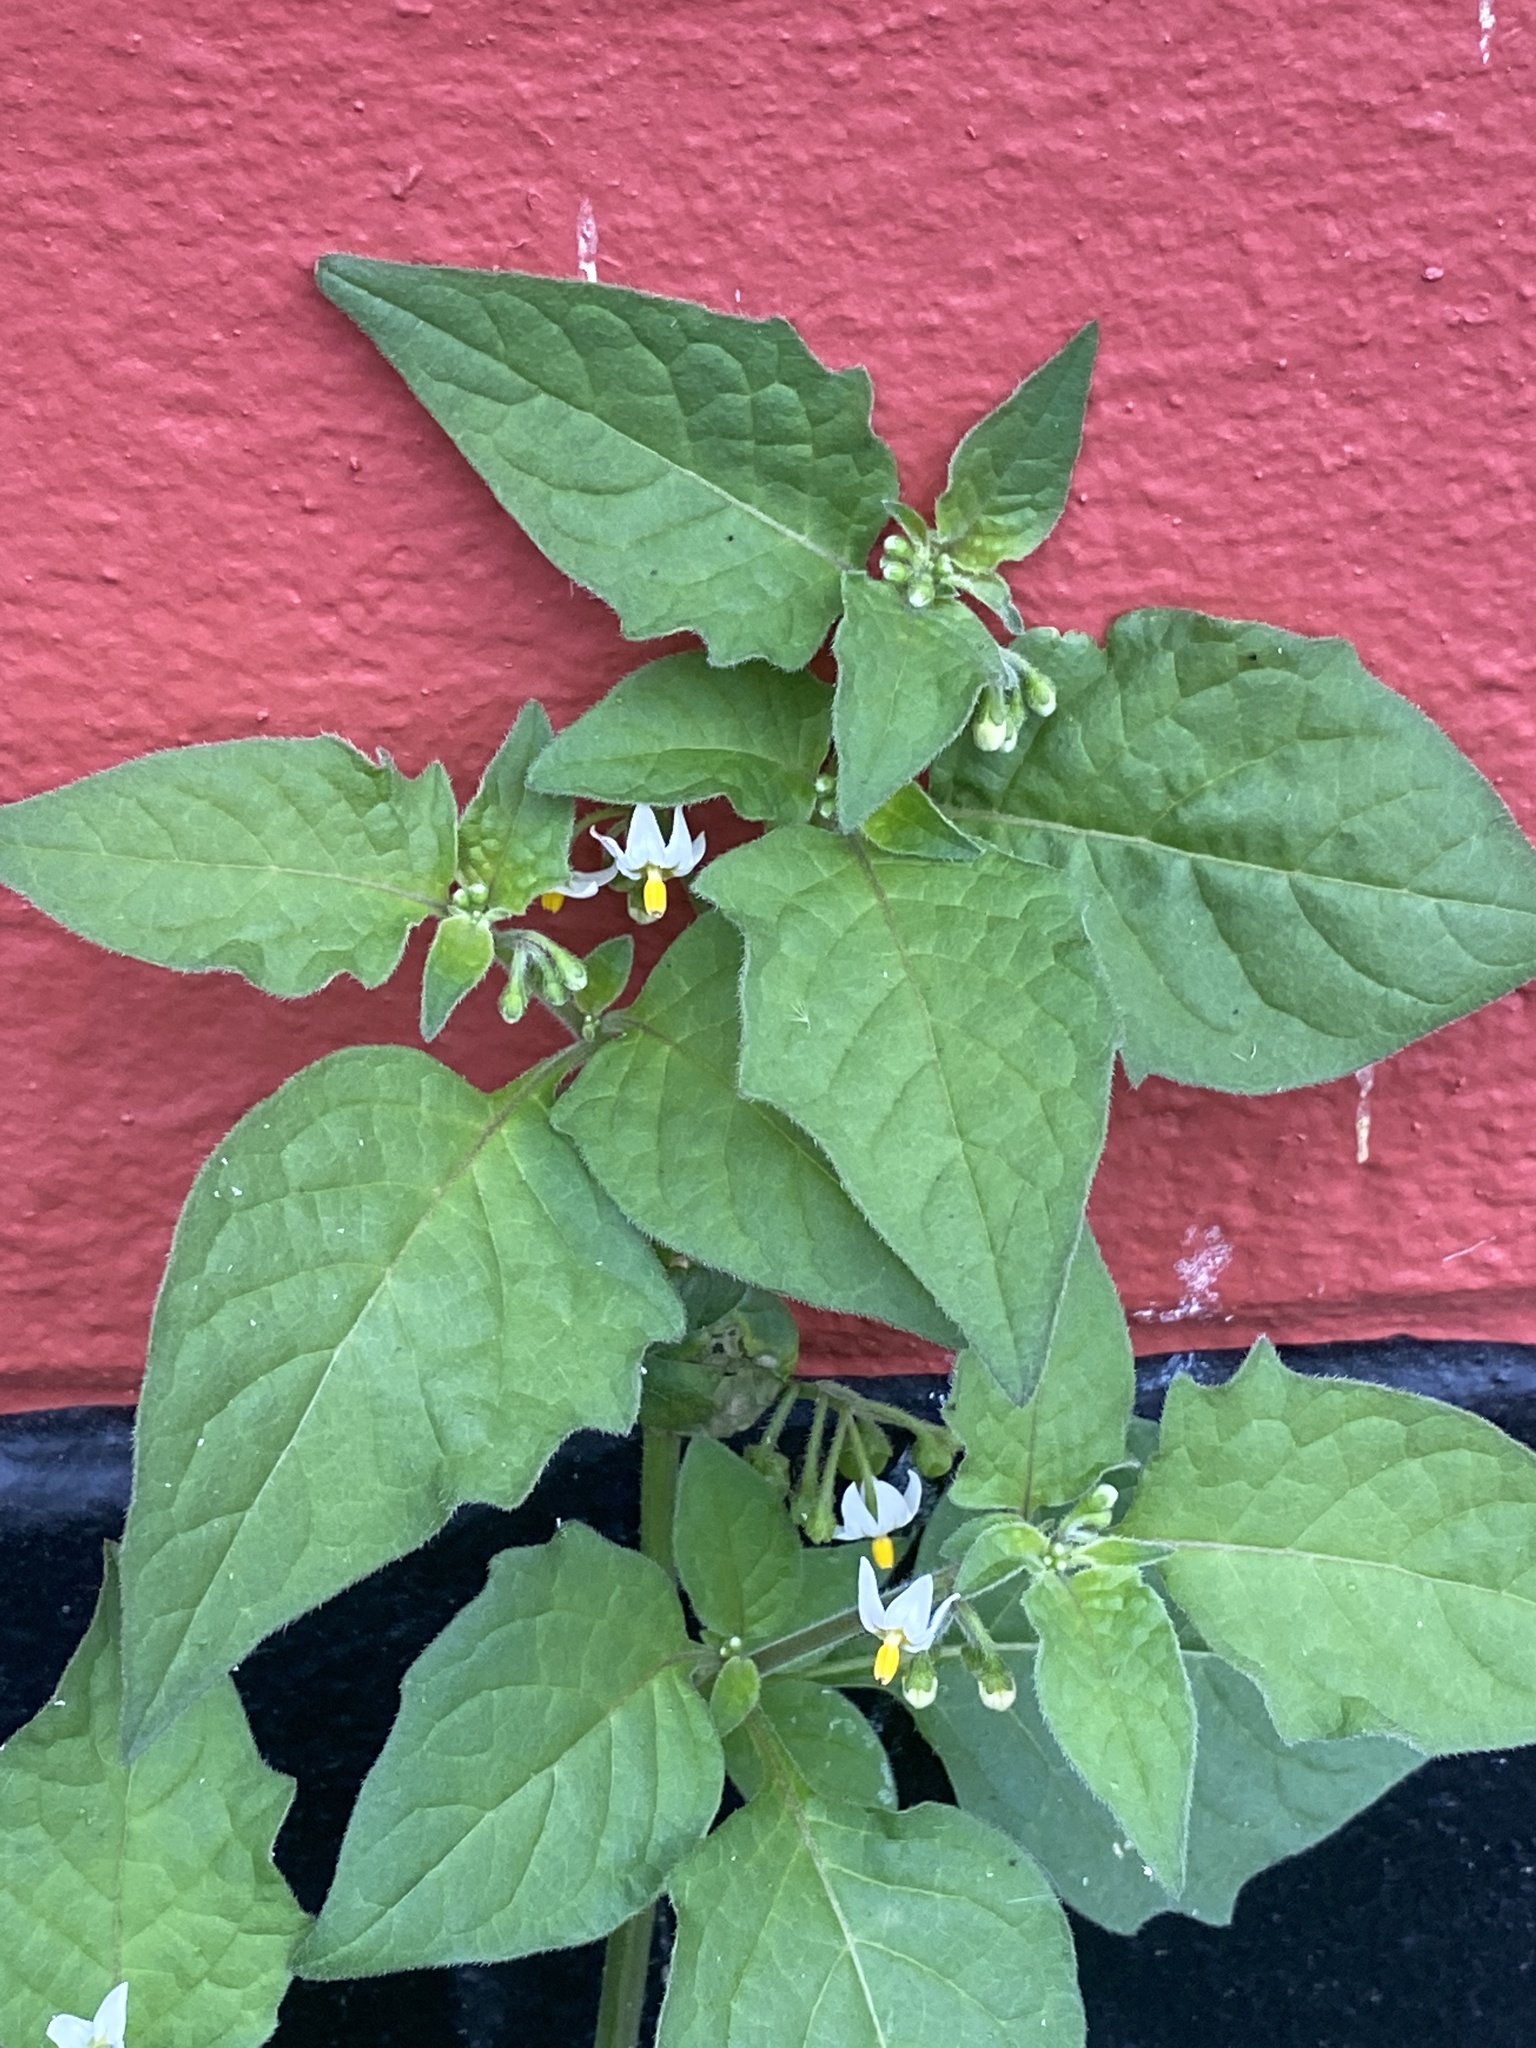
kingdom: Plantae
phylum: Tracheophyta
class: Magnoliopsida
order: Solanales
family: Solanaceae
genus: Solanum
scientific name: Solanum nigrum
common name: Black nightshade
